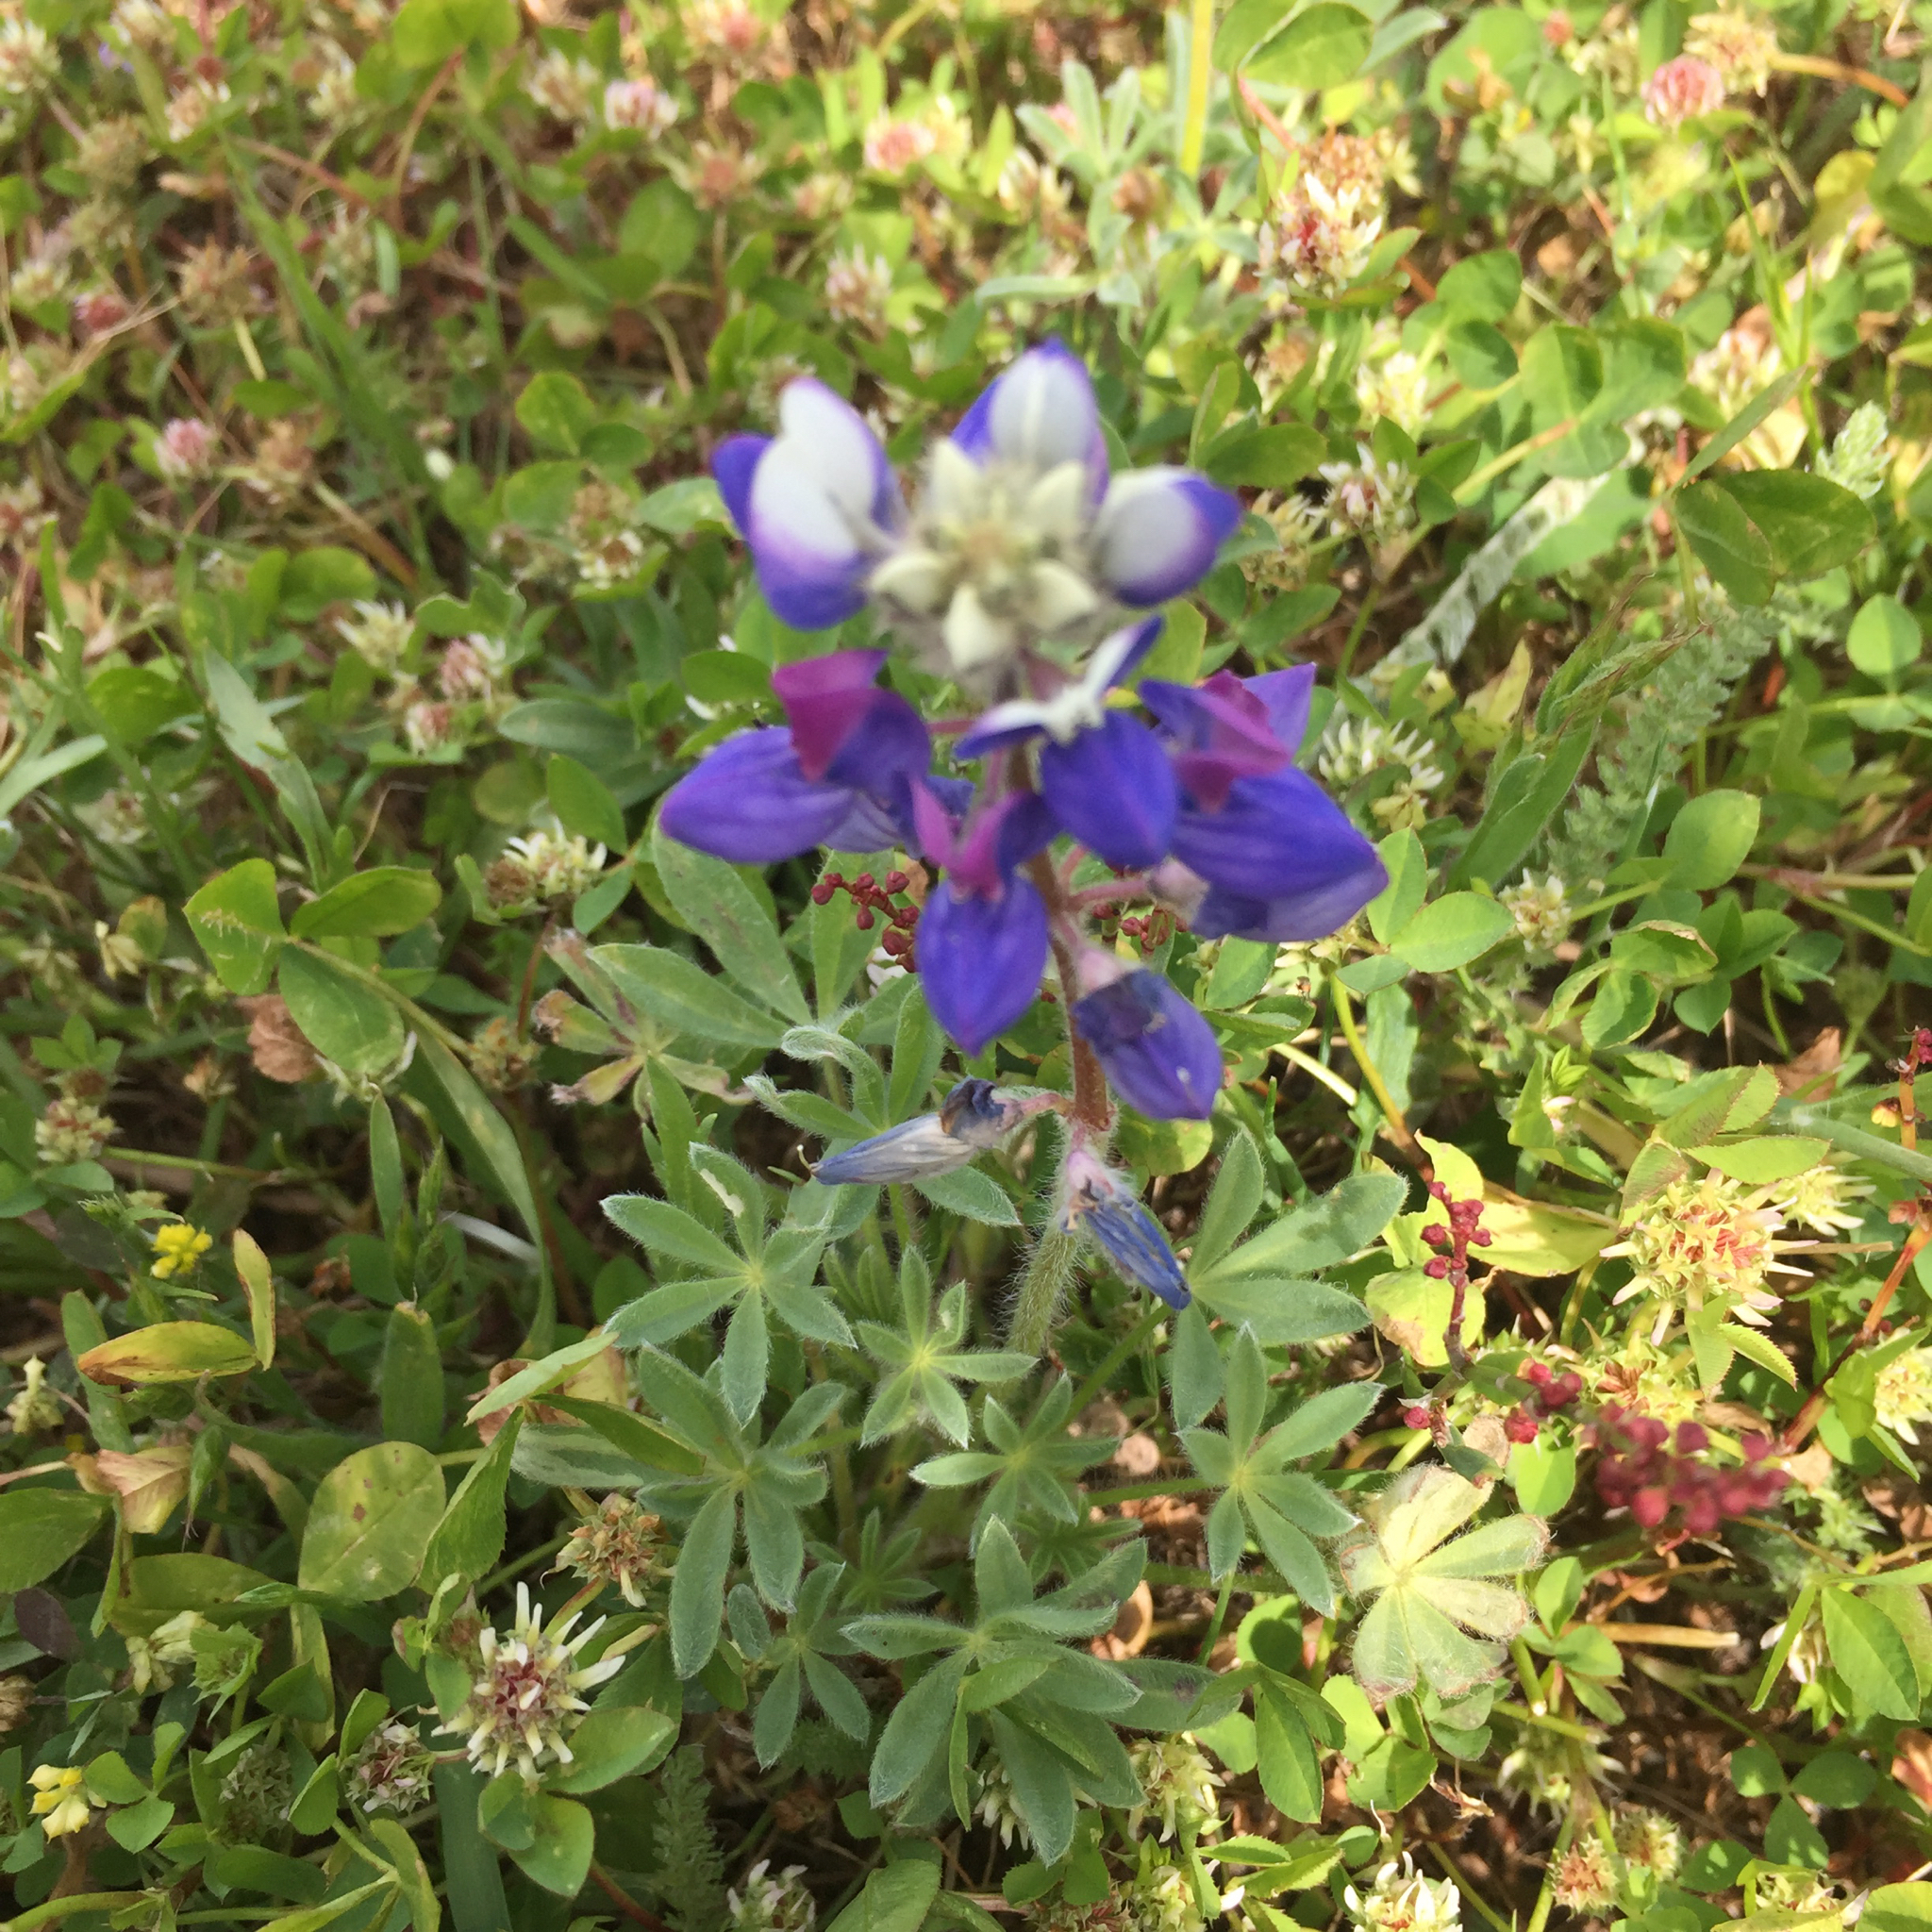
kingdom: Plantae
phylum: Tracheophyta
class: Magnoliopsida
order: Fabales
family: Fabaceae
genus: Lupinus
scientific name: Lupinus nanus
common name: Orean blue lupin
